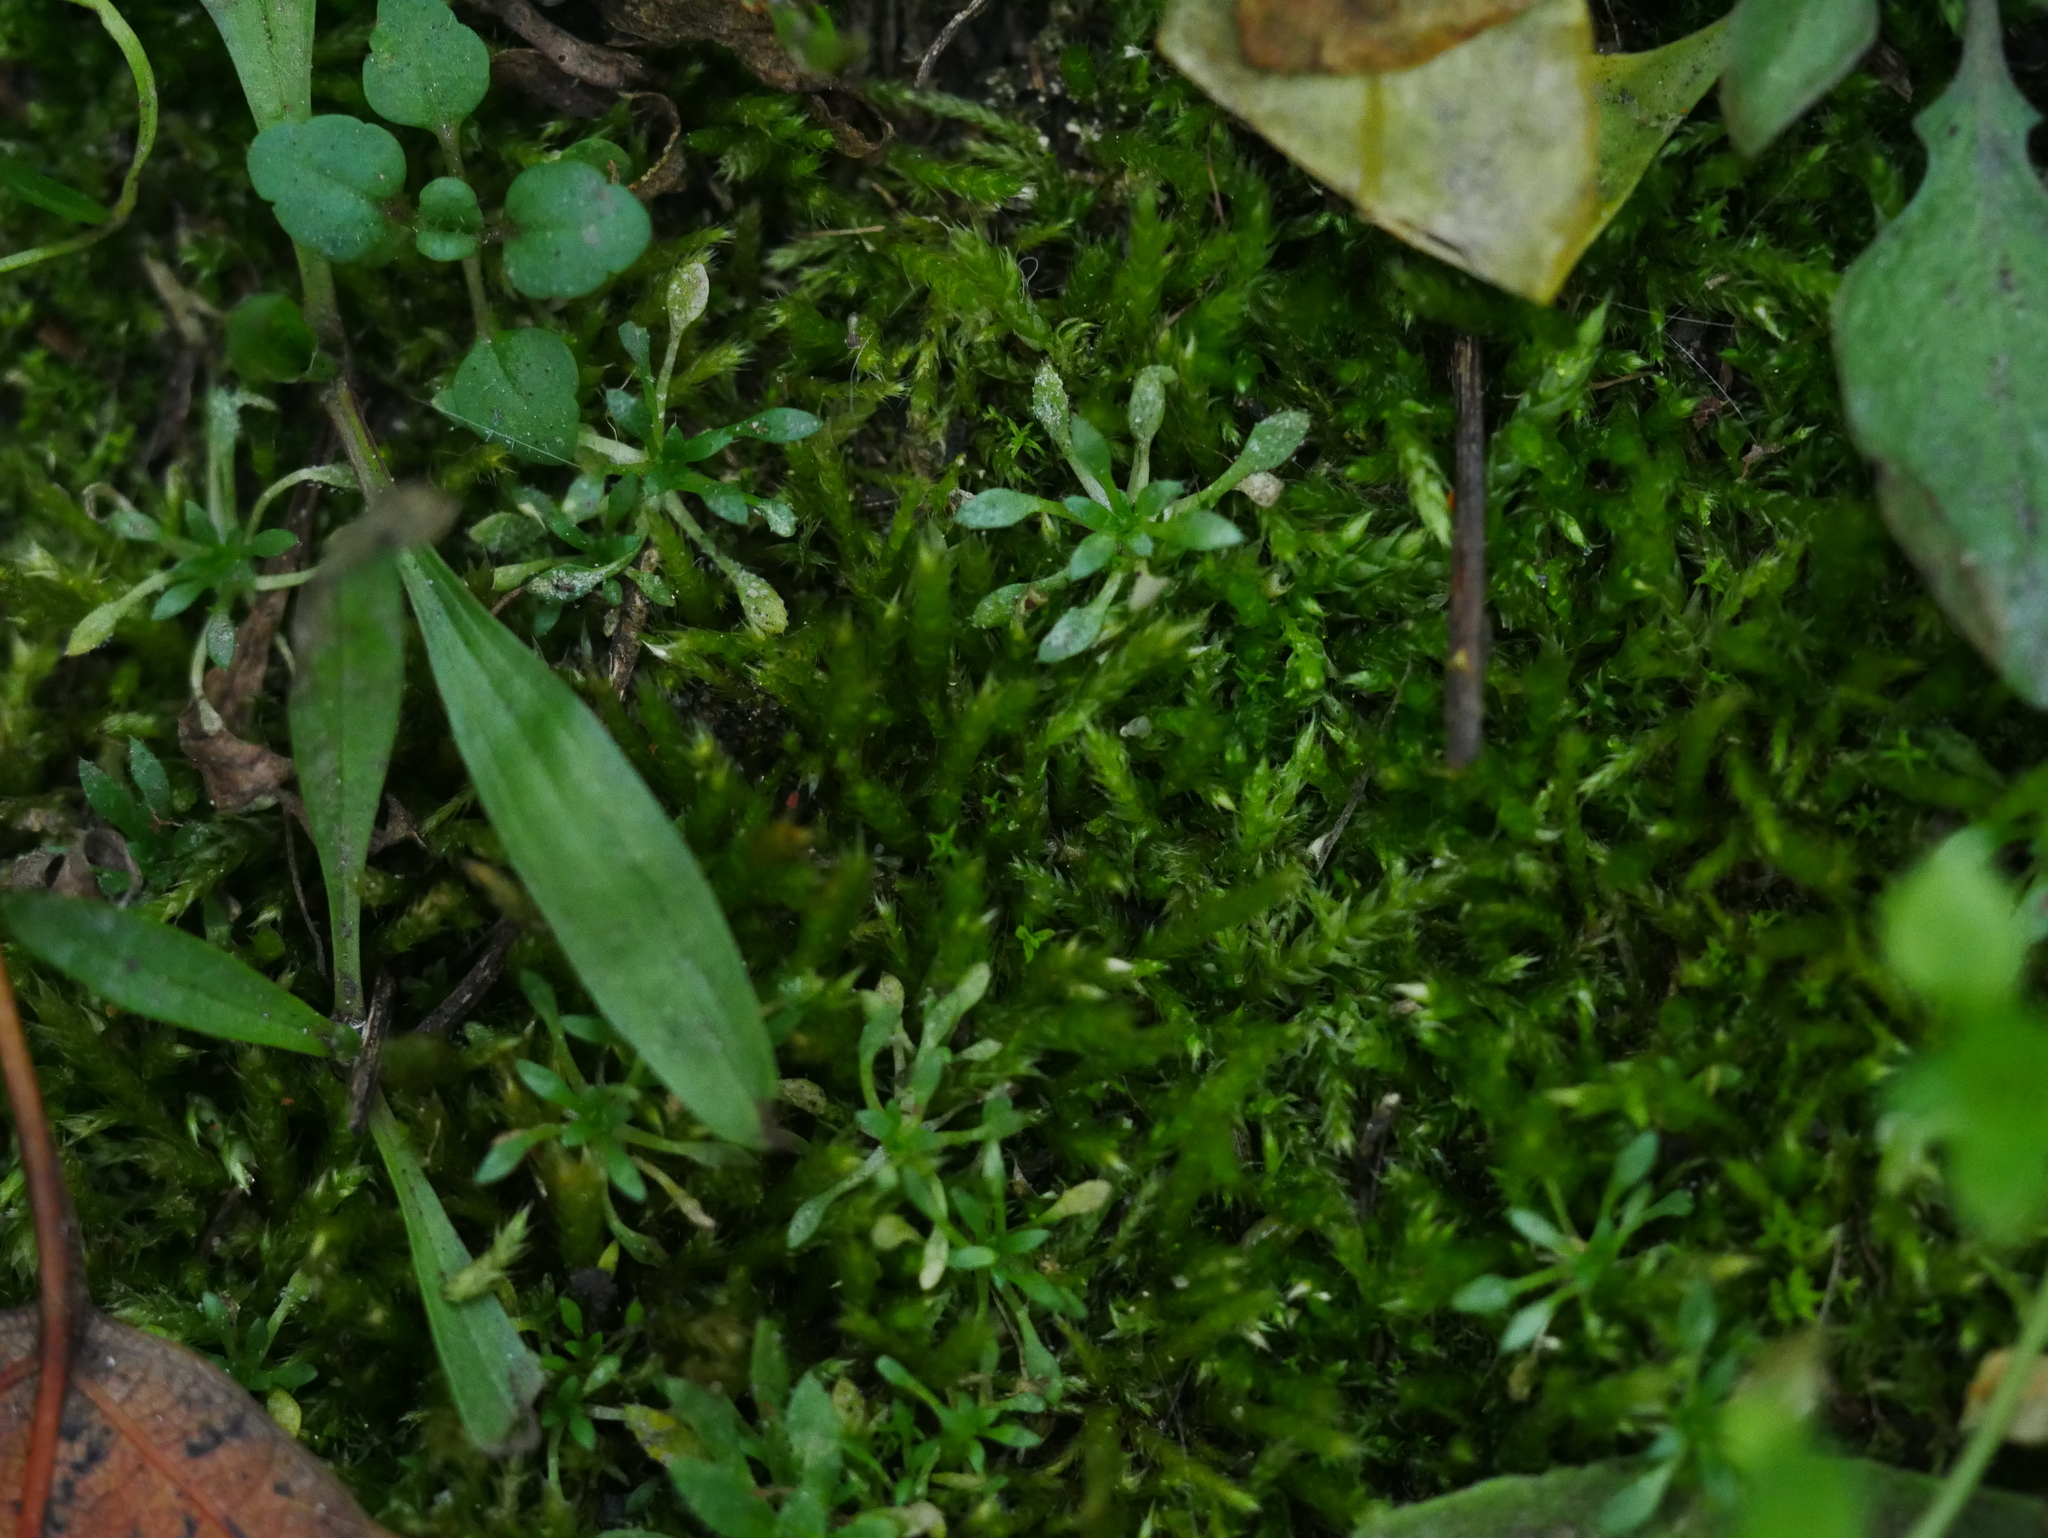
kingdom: Plantae
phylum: Tracheophyta
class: Magnoliopsida
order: Brassicales
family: Brassicaceae
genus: Draba
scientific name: Draba verna
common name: Spring draba
